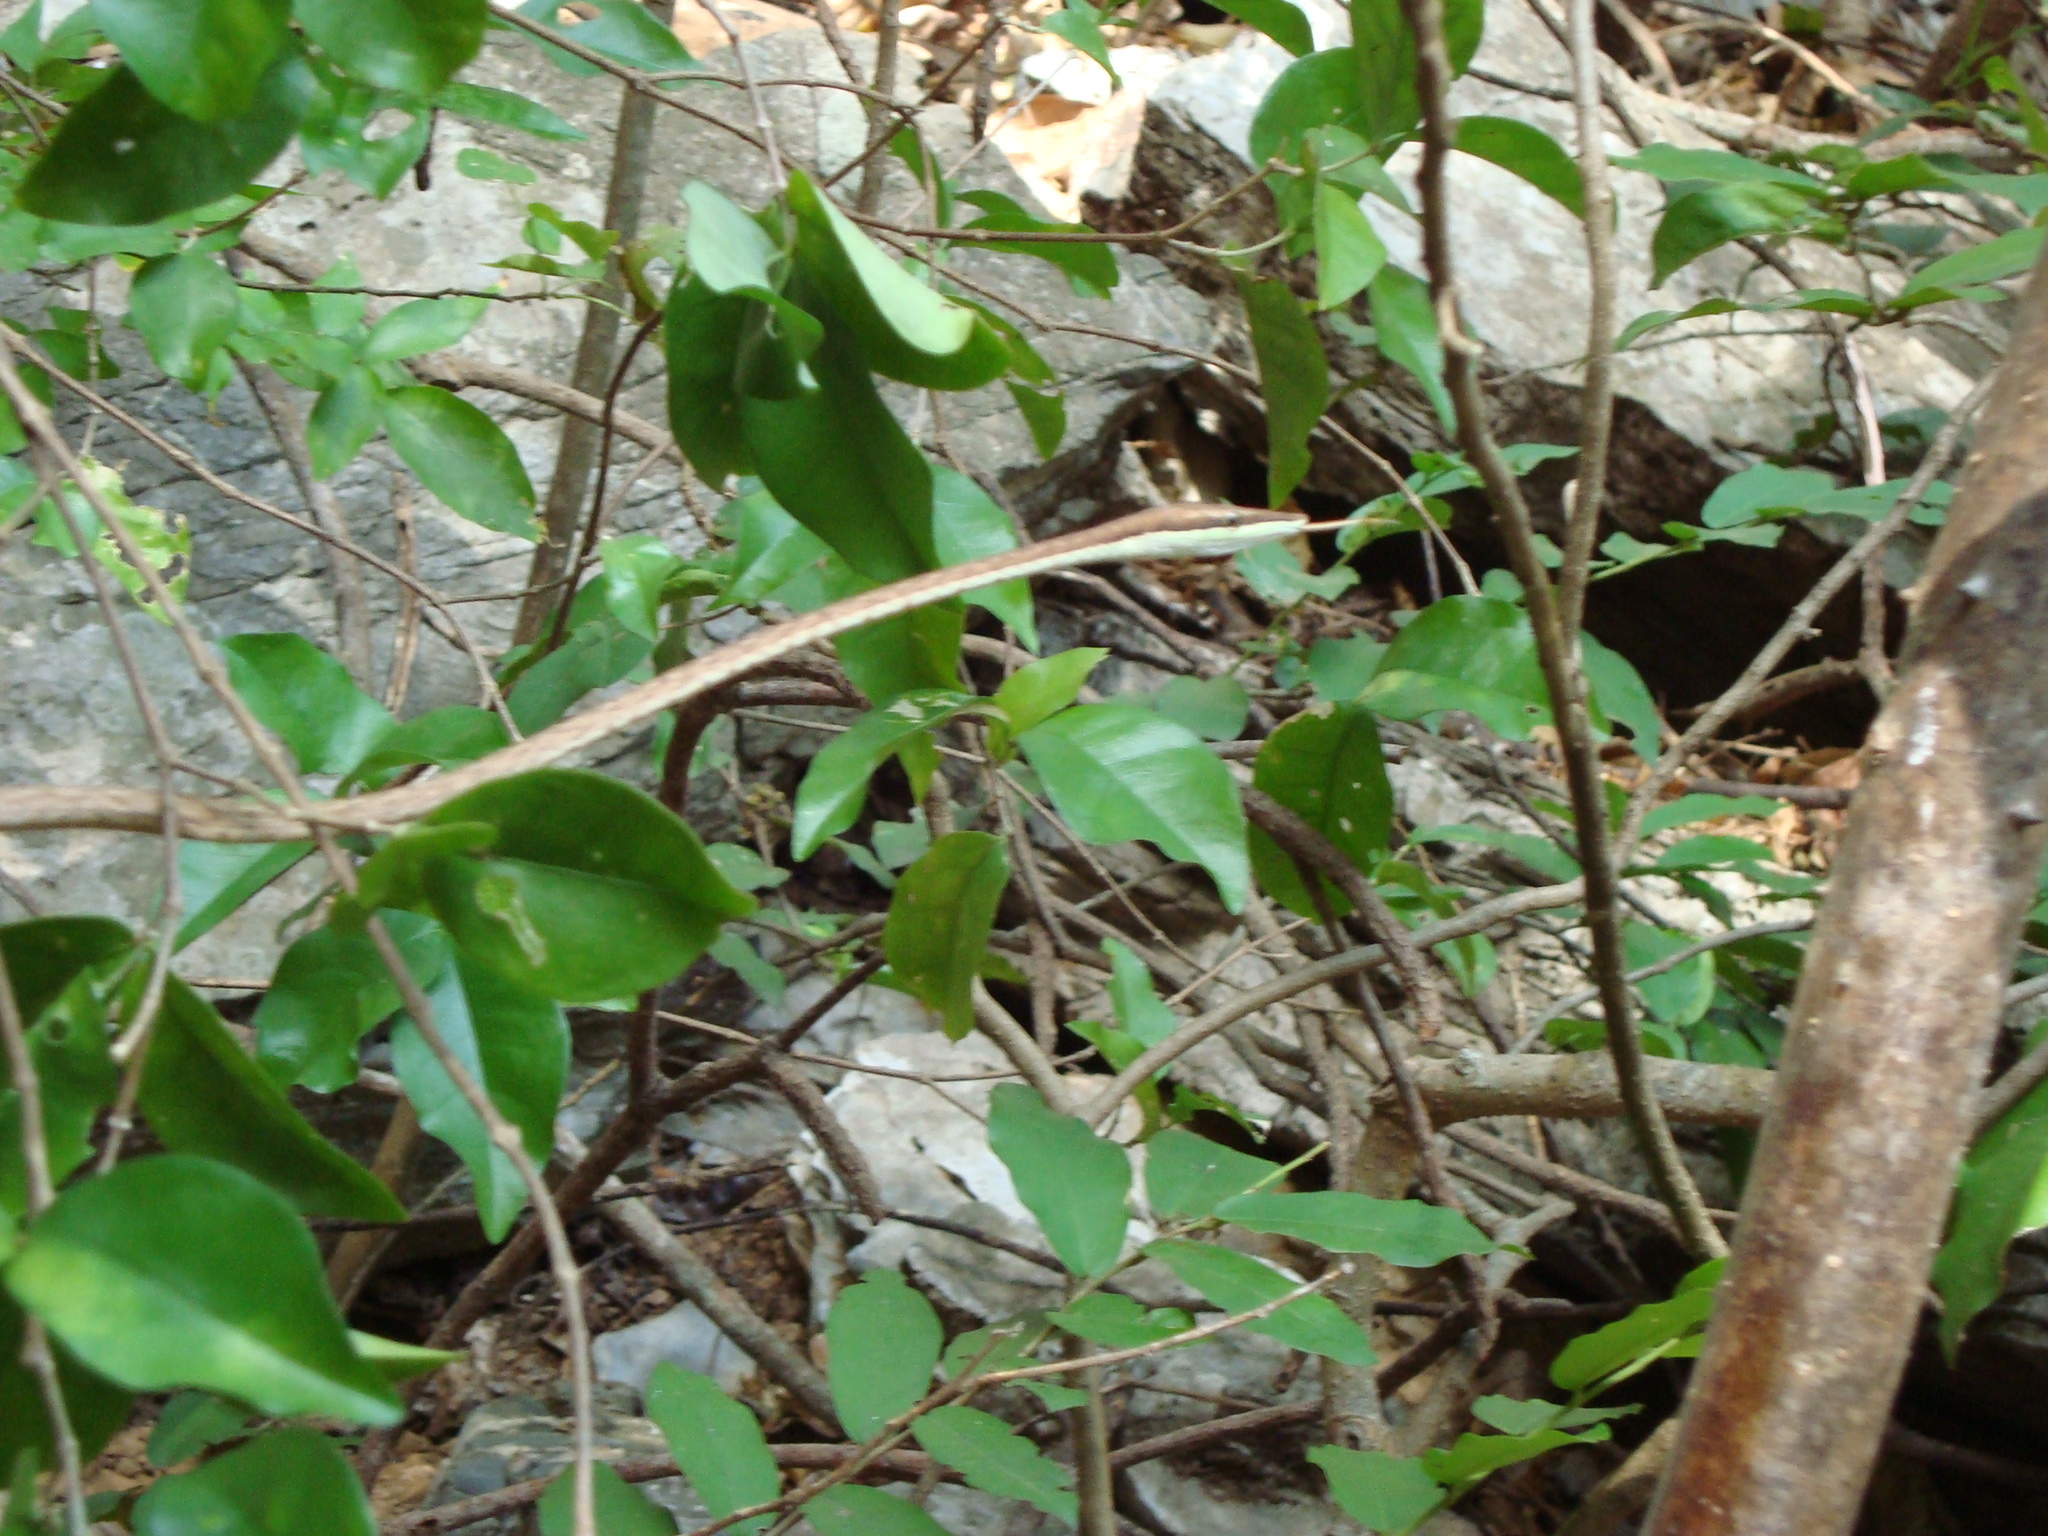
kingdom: Animalia
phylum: Chordata
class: Squamata
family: Colubridae
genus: Oxybelis
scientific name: Oxybelis microphthalmus
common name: Thrornscrub vine snake
